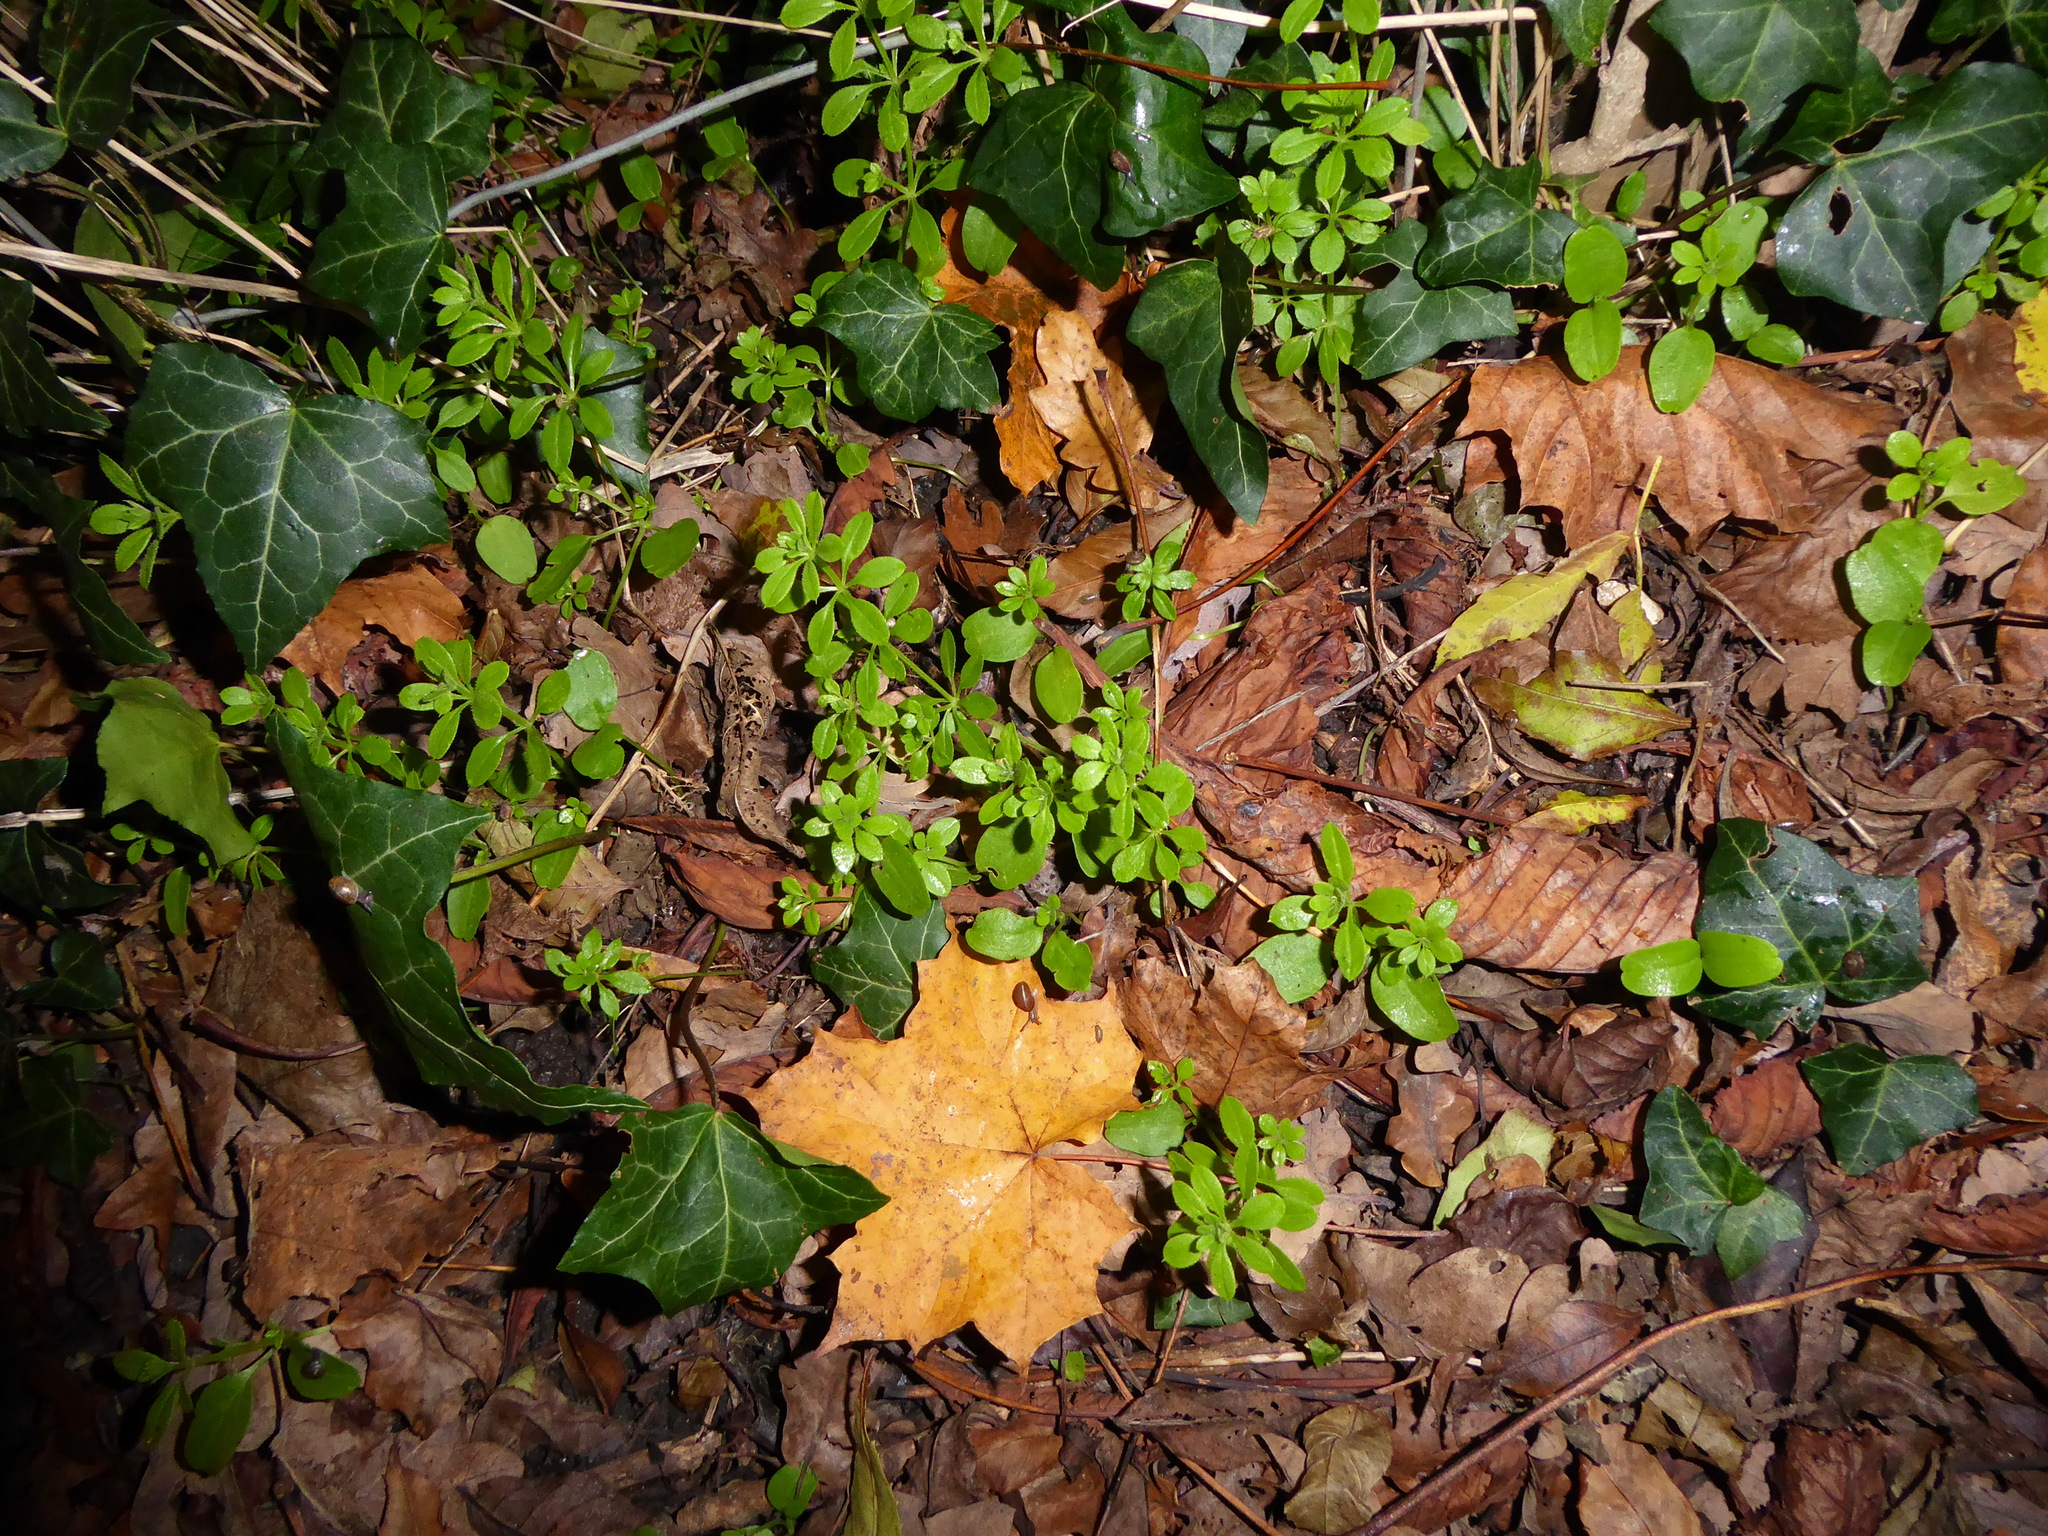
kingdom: Plantae
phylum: Tracheophyta
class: Magnoliopsida
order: Gentianales
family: Rubiaceae
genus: Galium
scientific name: Galium aparine
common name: Cleavers
